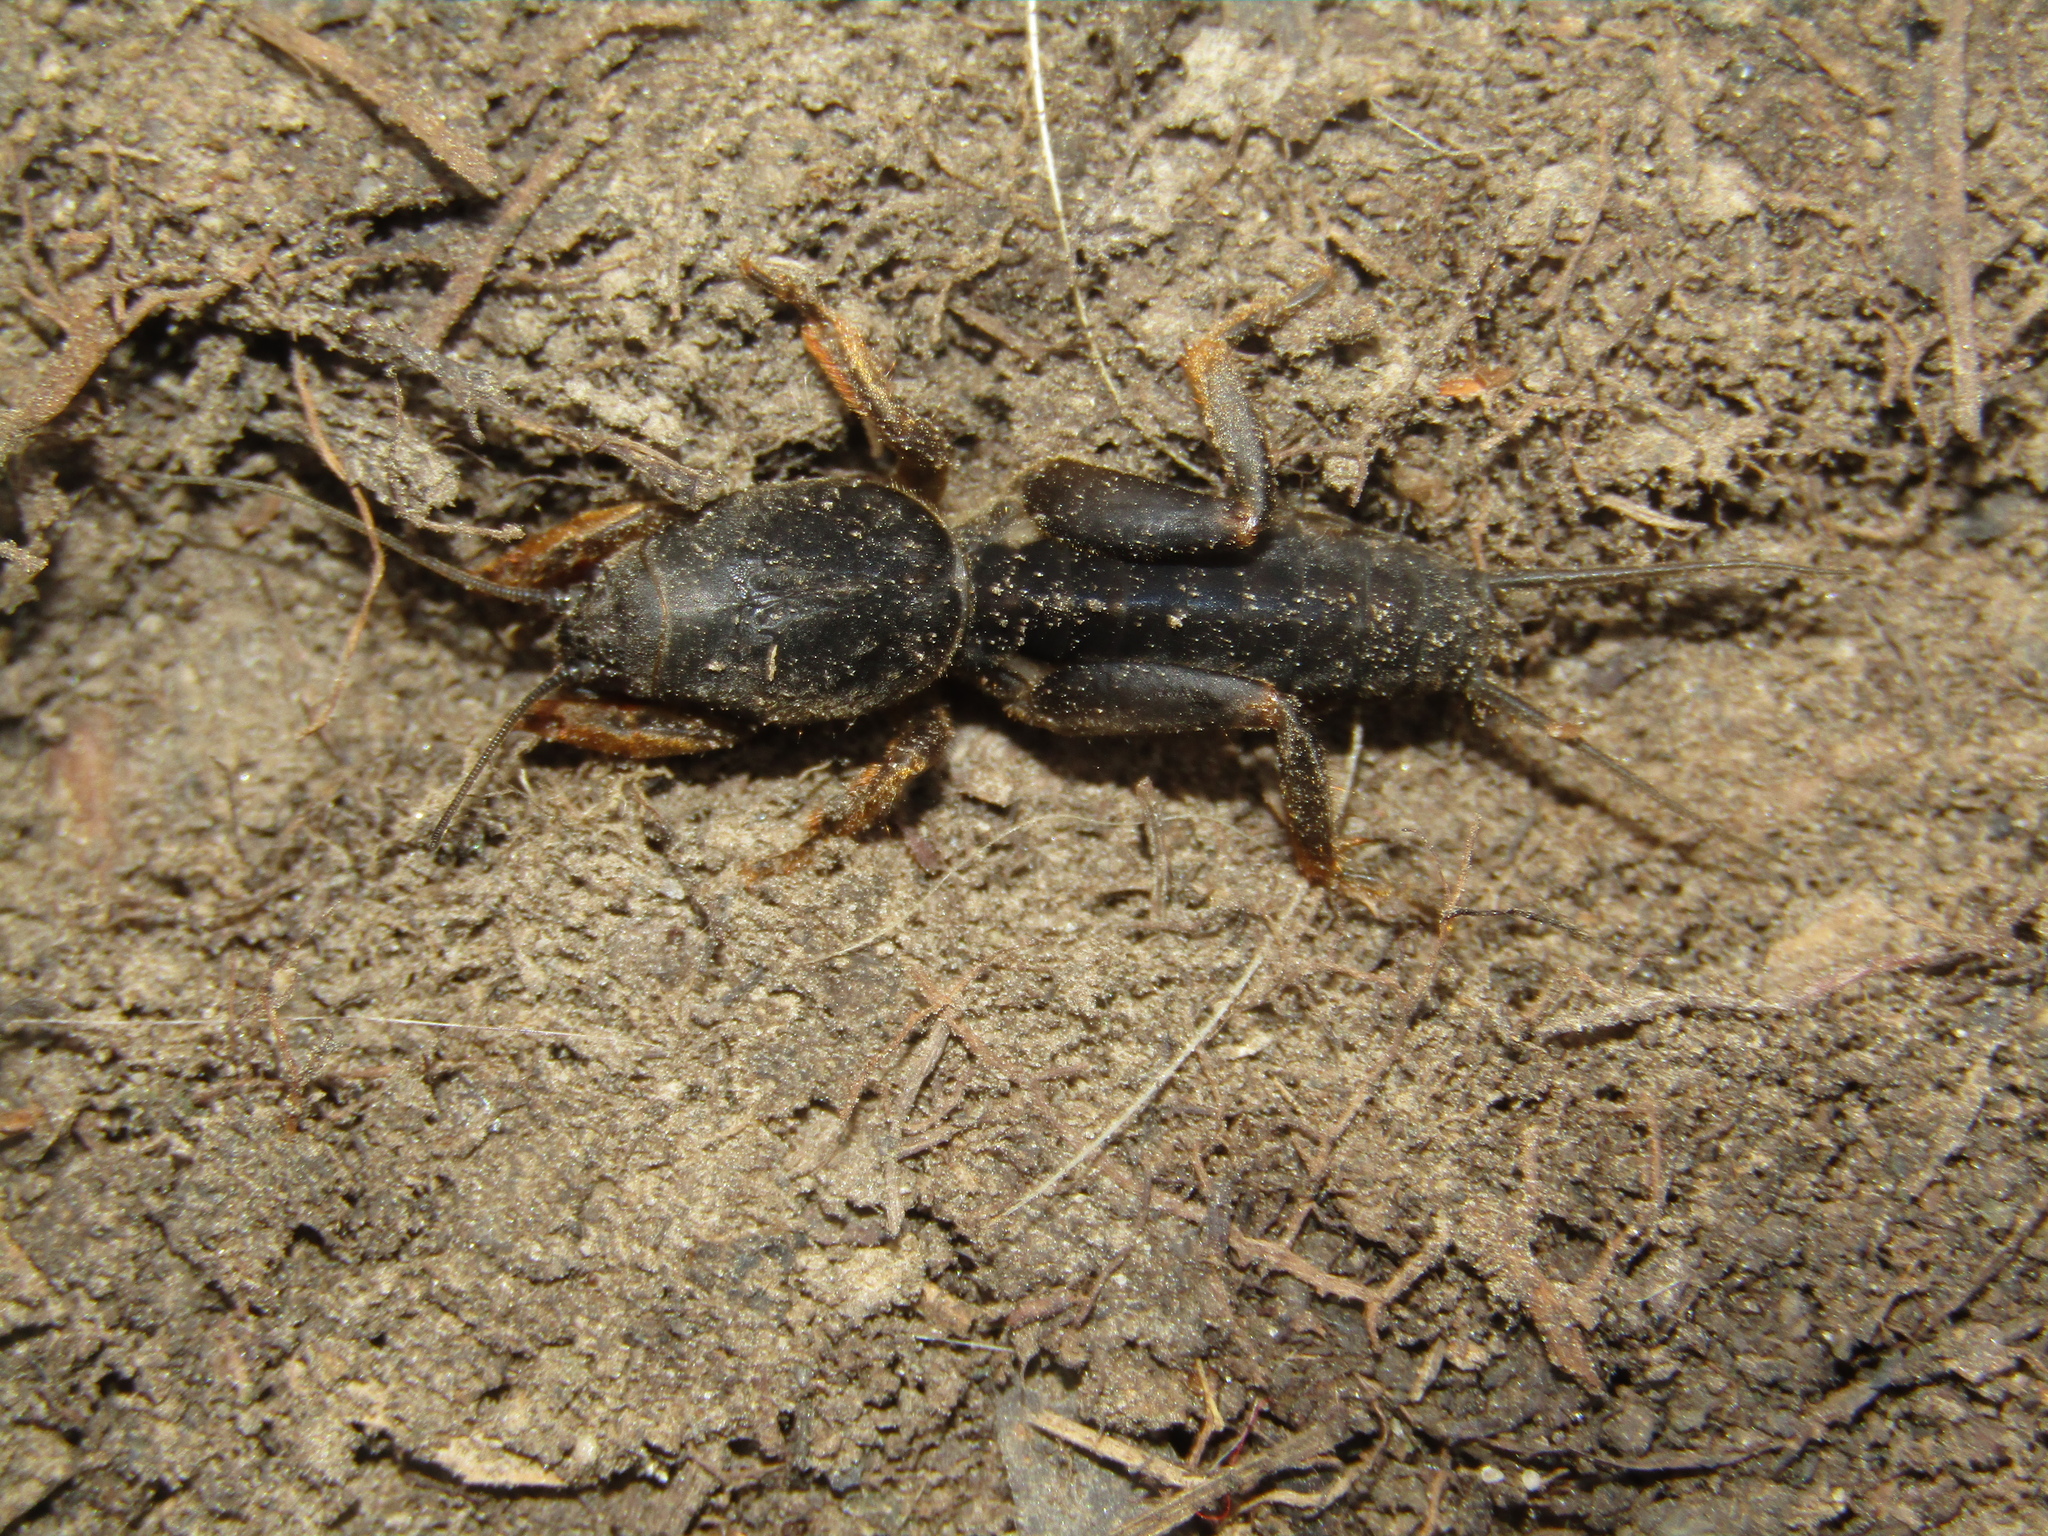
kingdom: Animalia
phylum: Arthropoda
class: Insecta
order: Orthoptera
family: Gryllotalpidae
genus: Gryllotalpa
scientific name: Gryllotalpa gryllotalpa
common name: European mole cricket
